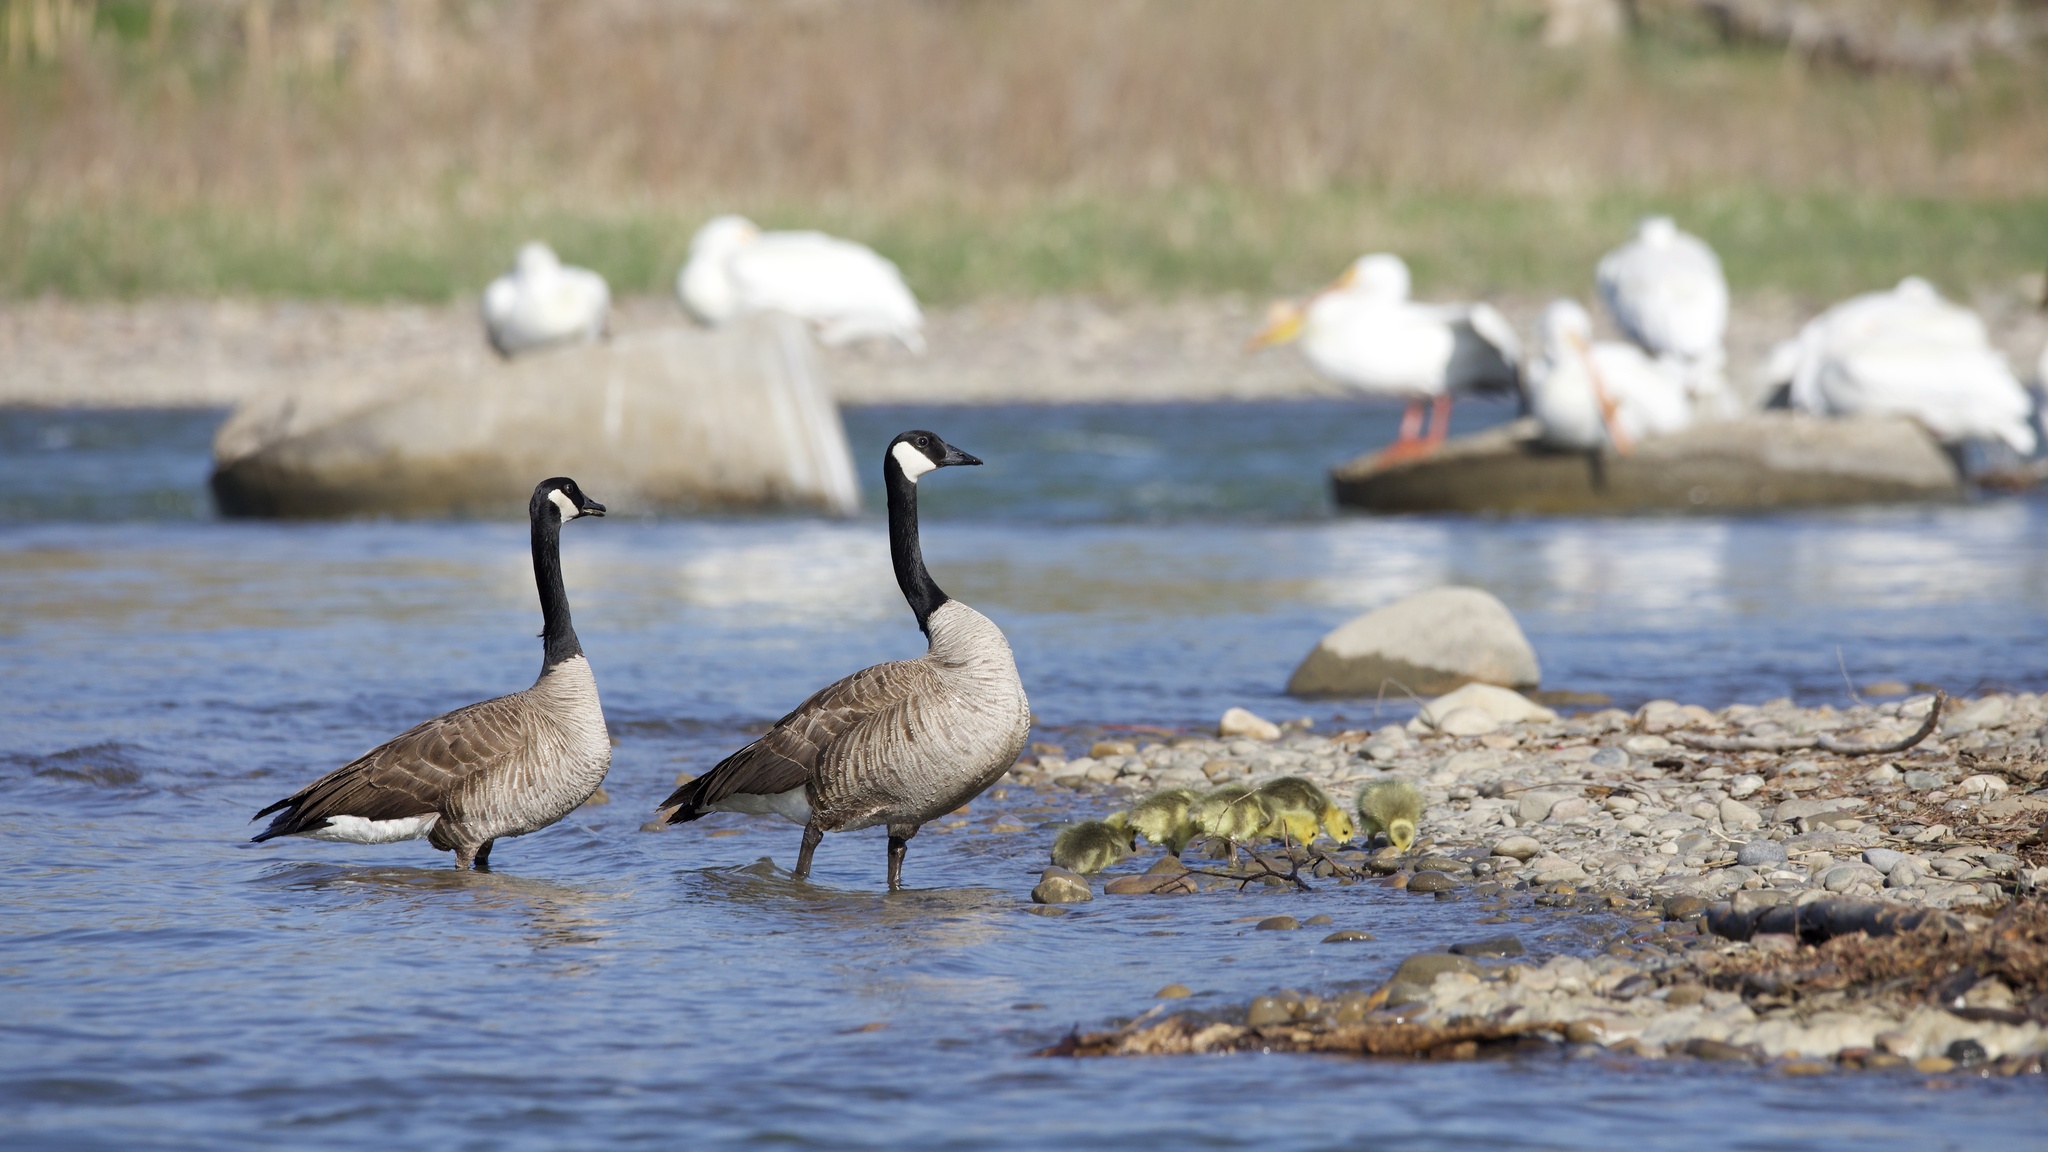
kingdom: Animalia
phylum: Chordata
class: Aves
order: Anseriformes
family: Anatidae
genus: Branta
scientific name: Branta canadensis
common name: Canada goose
